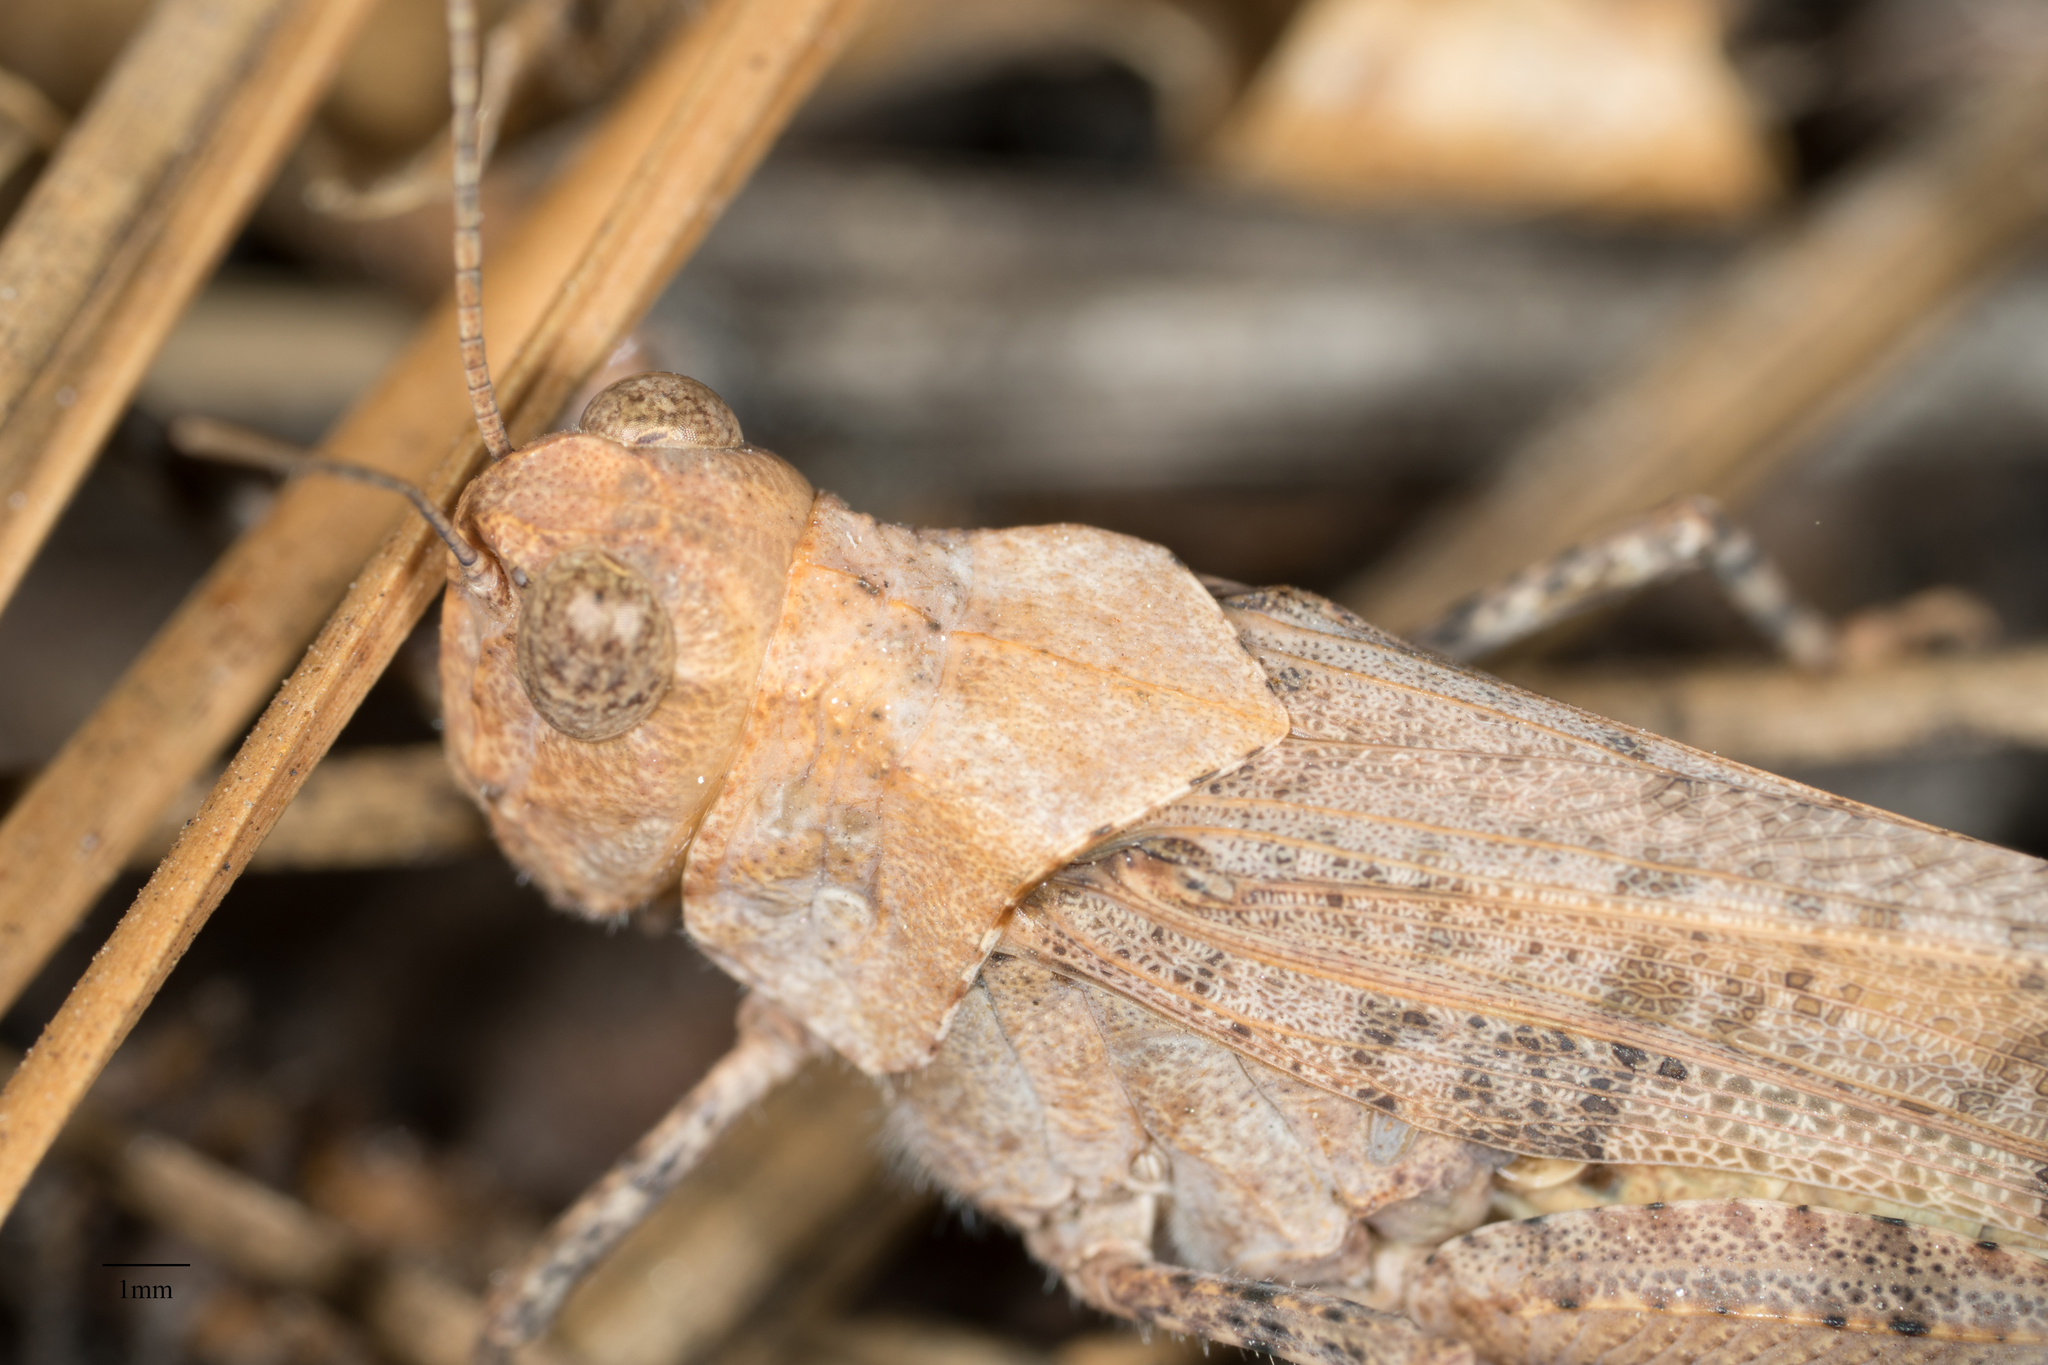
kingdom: Animalia
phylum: Arthropoda
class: Insecta
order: Orthoptera
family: Acrididae
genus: Trimerotropis
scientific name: Trimerotropis verruculata
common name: Crackling forest grasshopper
